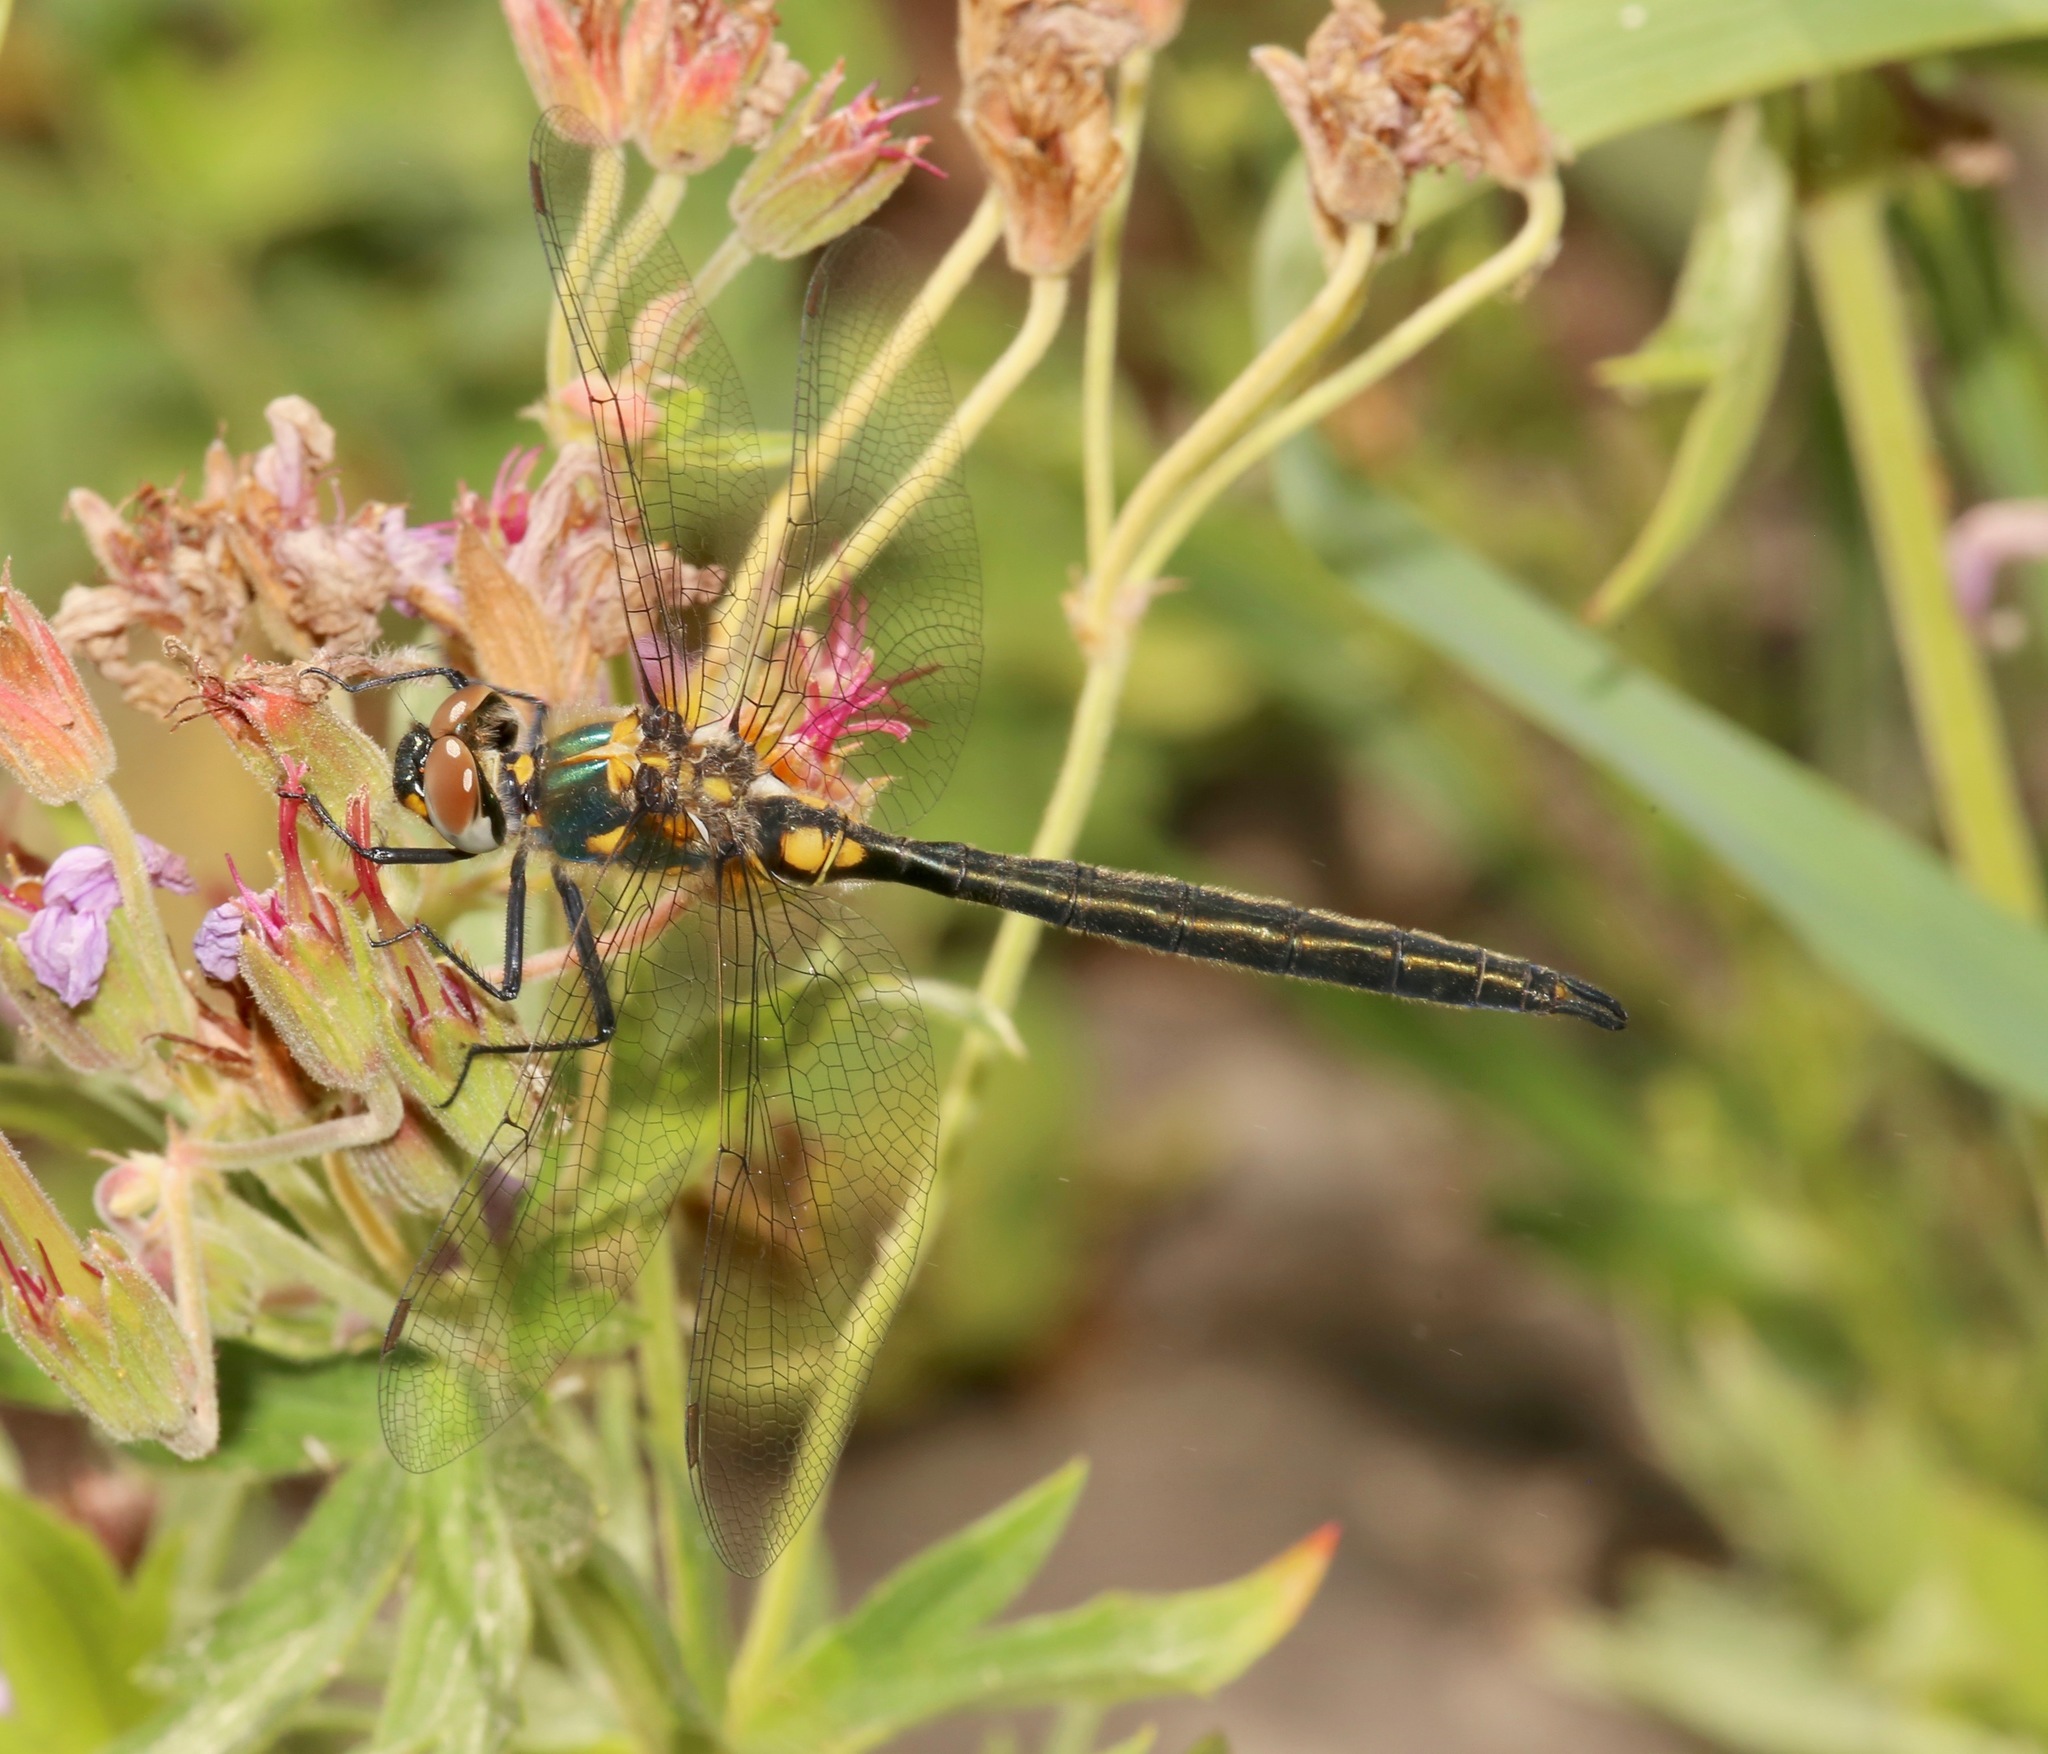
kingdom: Animalia
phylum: Arthropoda
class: Insecta
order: Odonata
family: Corduliidae
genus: Somatochlora
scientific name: Somatochlora semicircularis
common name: Mountain emerald
